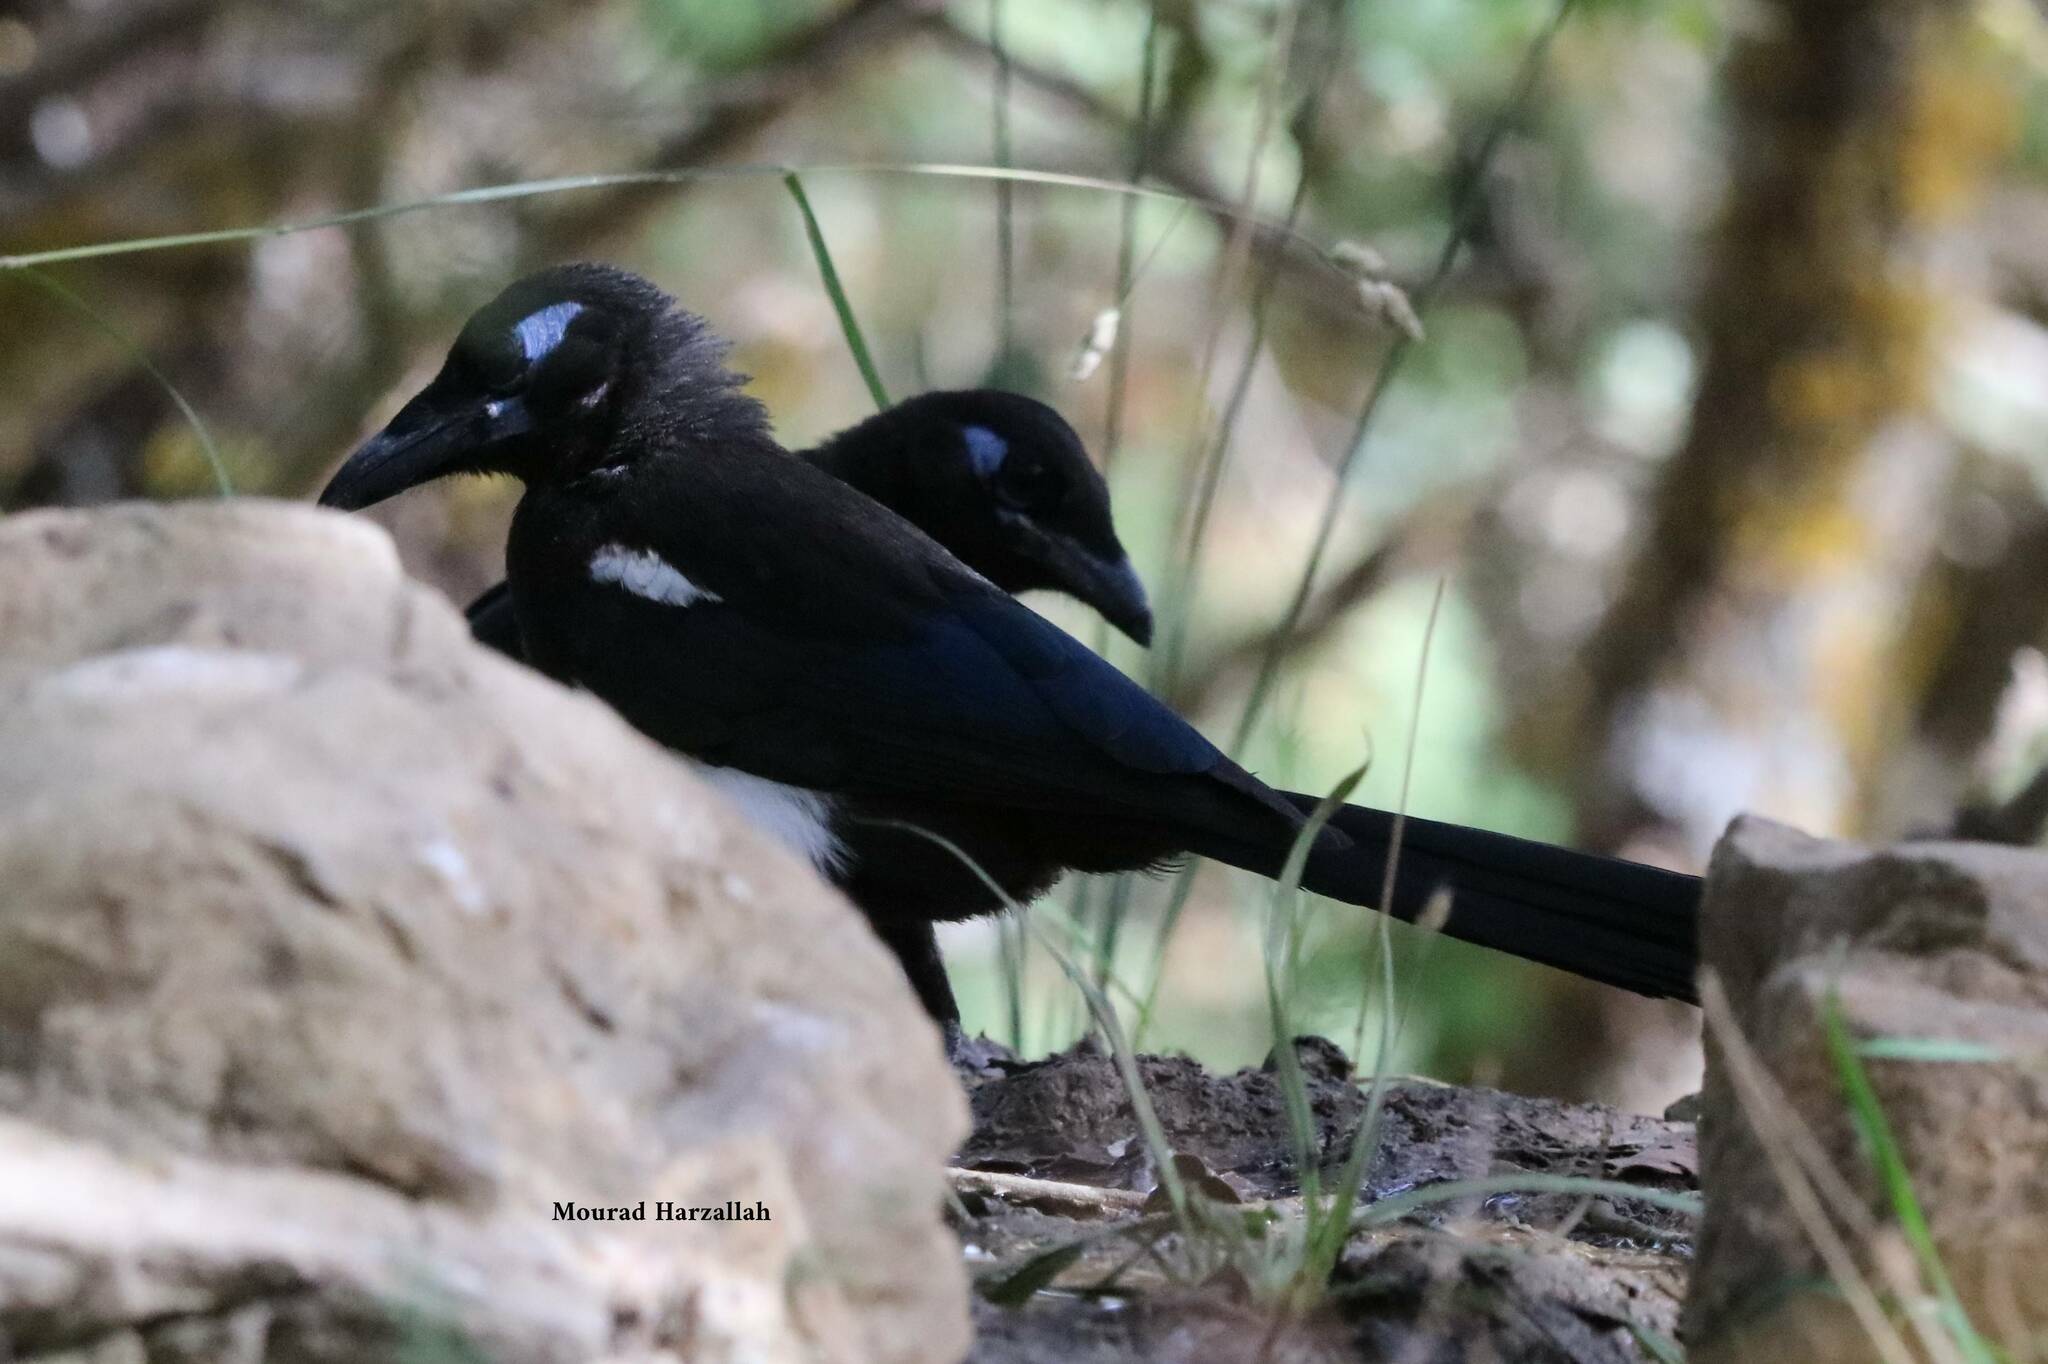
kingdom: Animalia
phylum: Chordata
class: Aves
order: Passeriformes
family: Corvidae
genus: Pica
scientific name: Pica mauritanica
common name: Maghreb magpie
